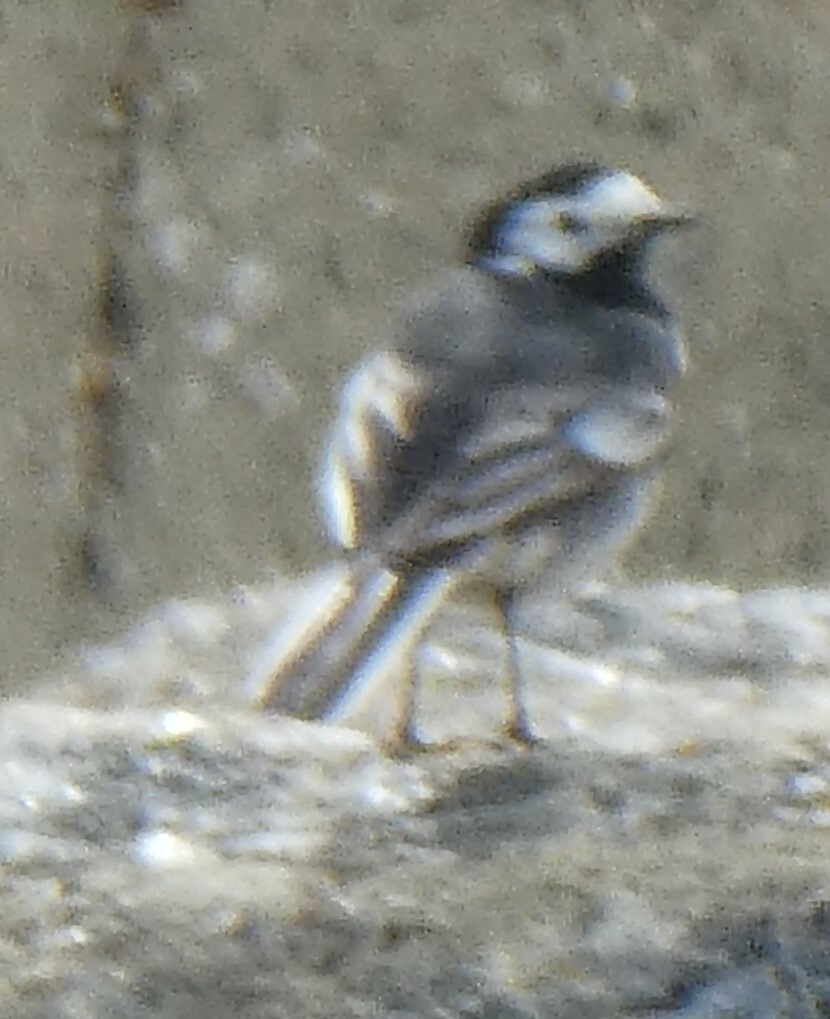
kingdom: Animalia
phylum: Chordata
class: Aves
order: Passeriformes
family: Motacillidae
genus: Motacilla
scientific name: Motacilla alba
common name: White wagtail
